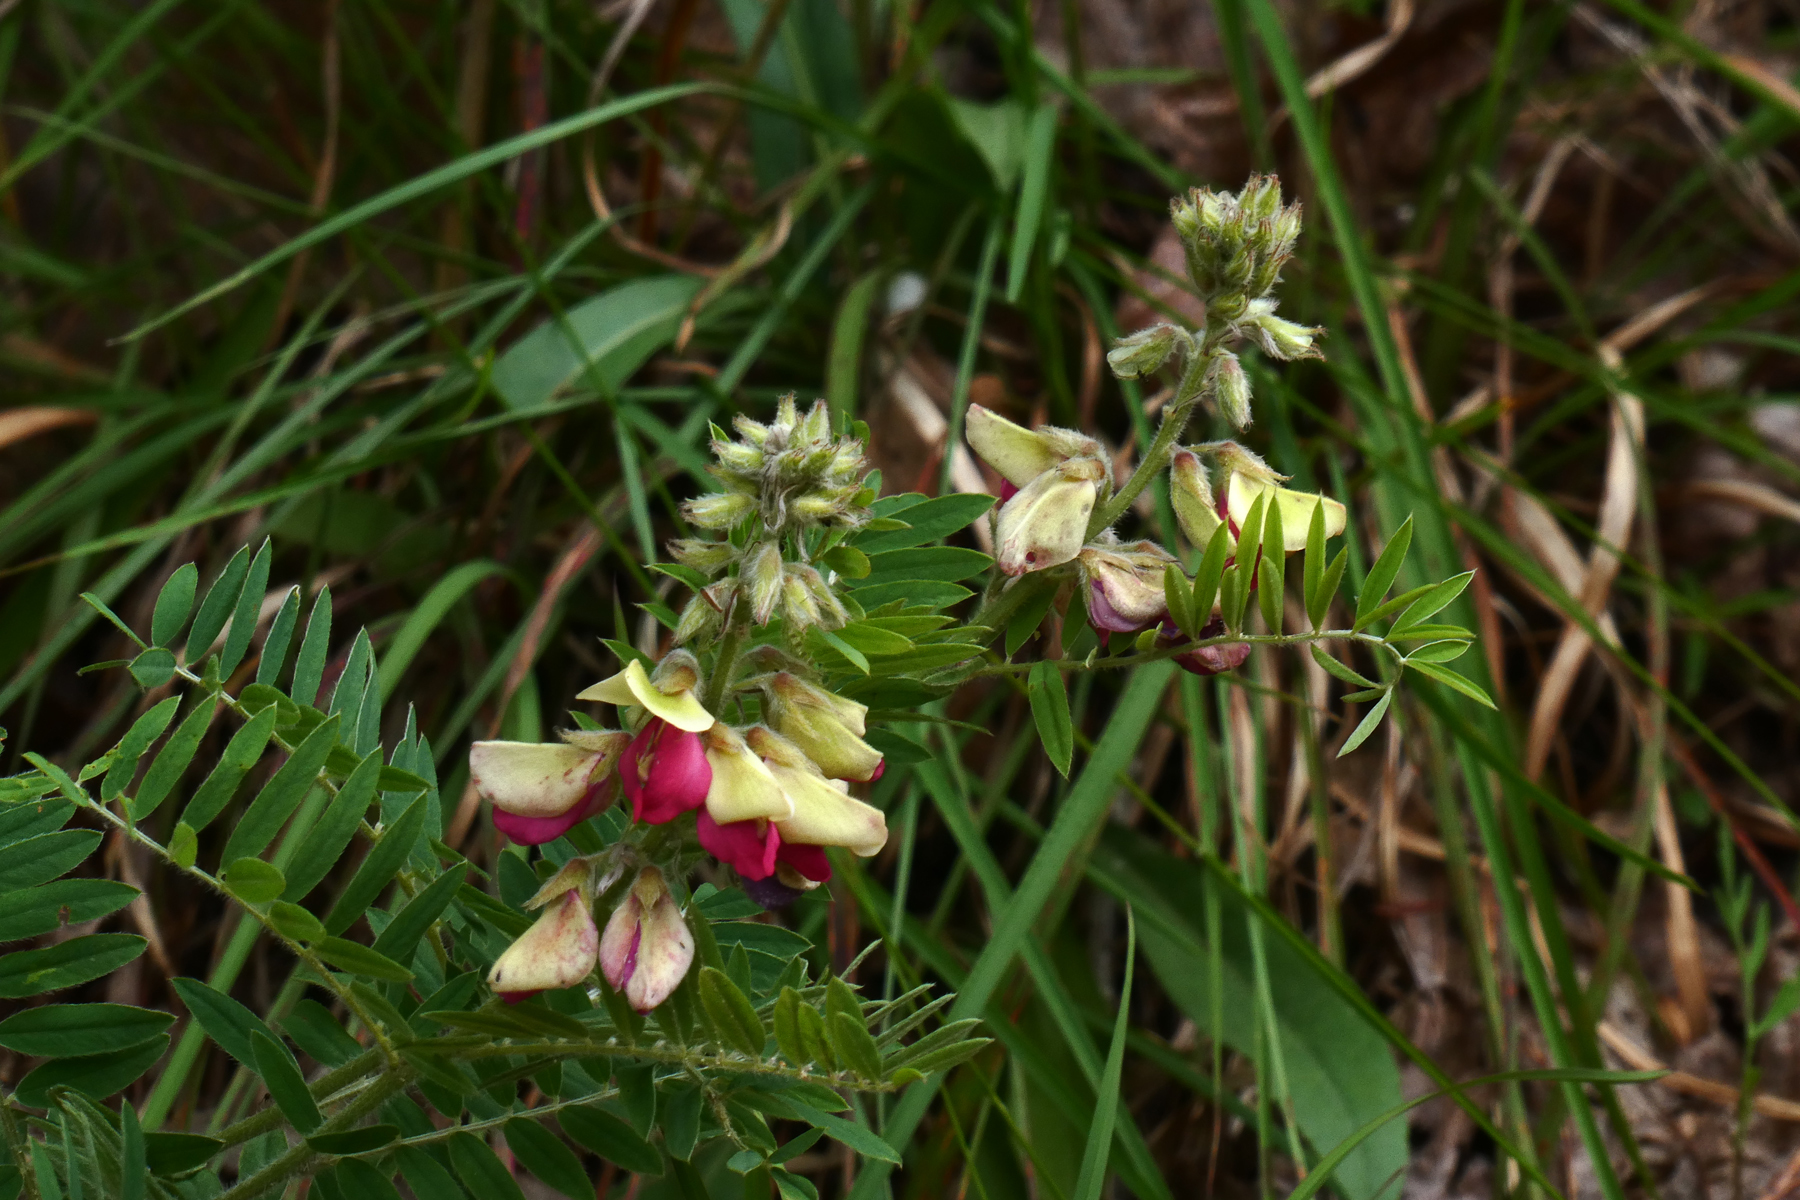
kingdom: Plantae
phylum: Tracheophyta
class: Magnoliopsida
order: Fabales
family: Fabaceae
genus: Tephrosia
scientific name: Tephrosia virginiana
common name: Rabbit-pea
